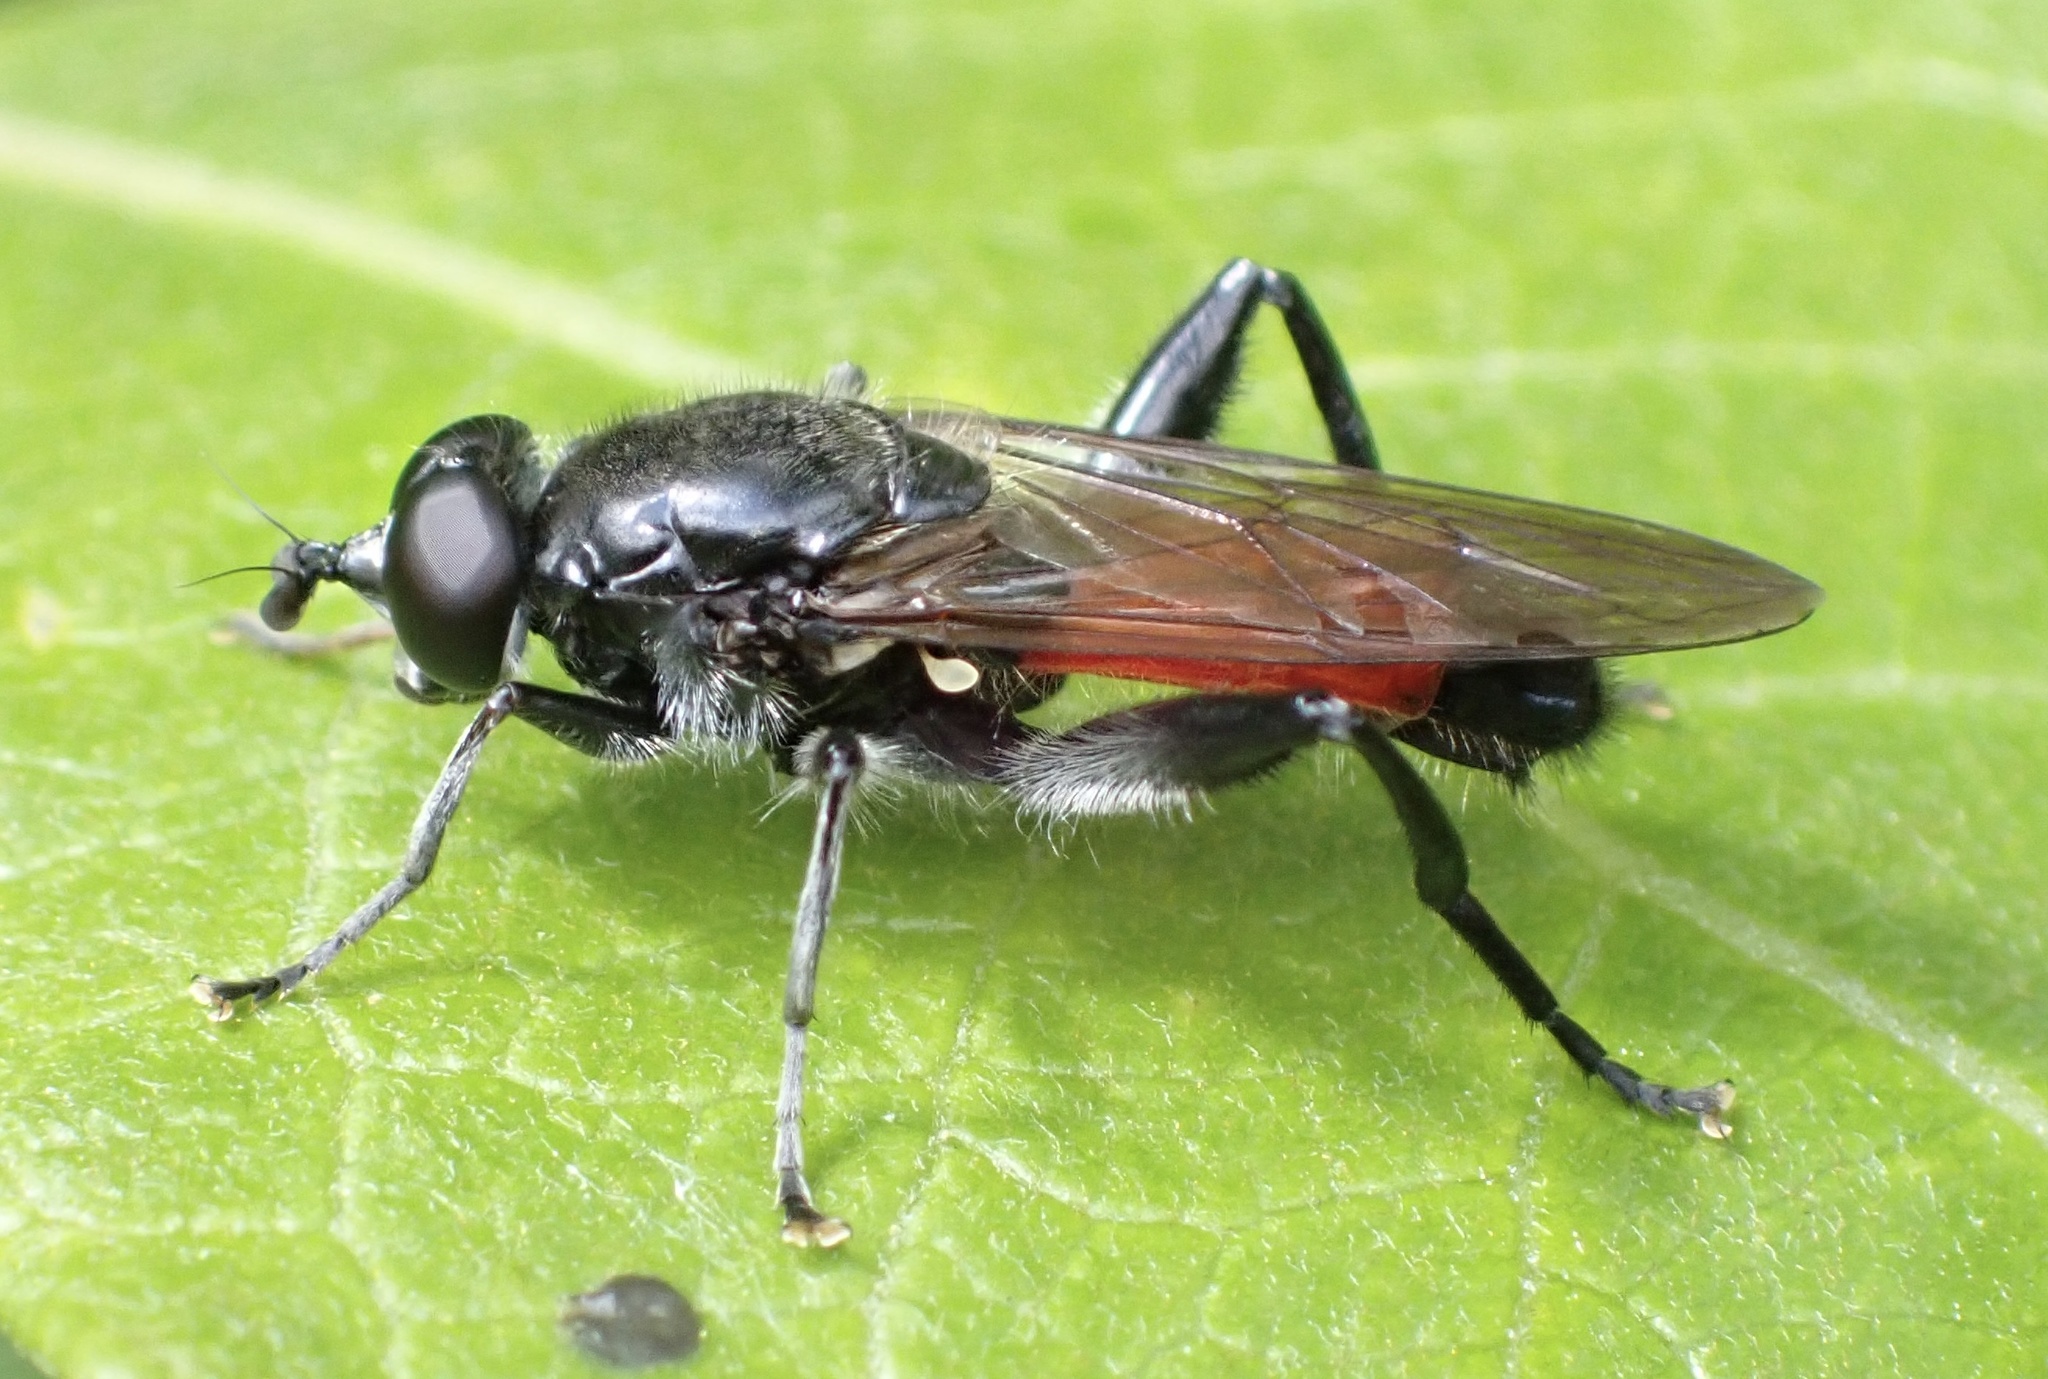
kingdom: Animalia
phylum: Arthropoda
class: Insecta
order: Diptera
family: Syrphidae
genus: Brachypalpoides
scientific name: Brachypalpoides lenta
